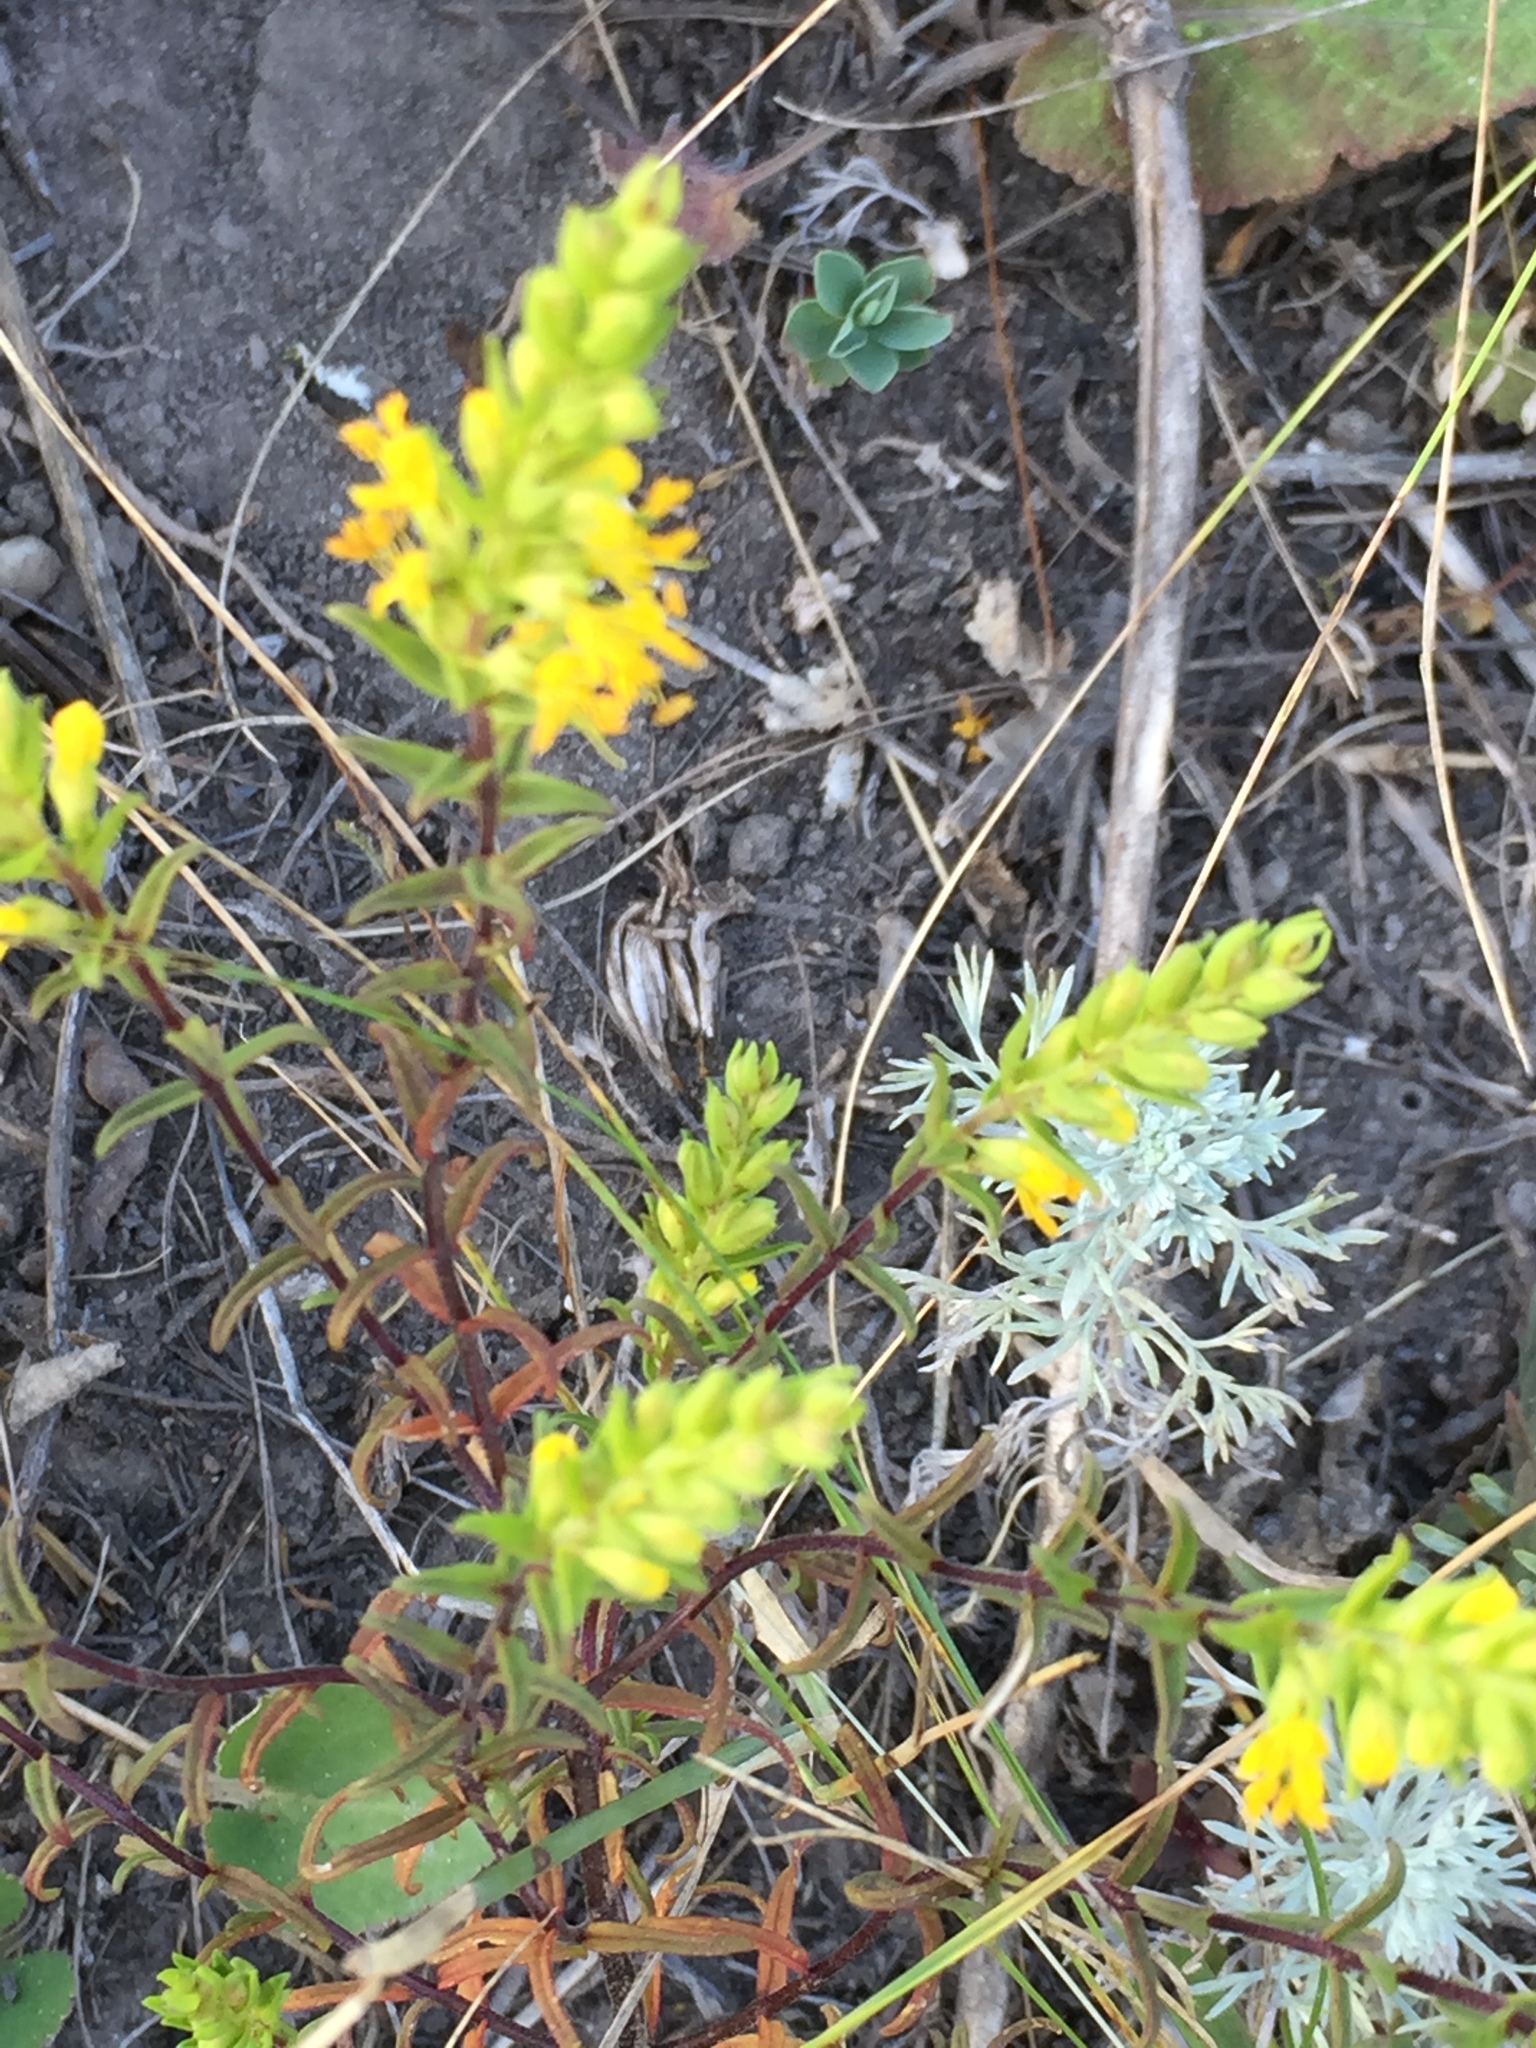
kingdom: Plantae
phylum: Tracheophyta
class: Magnoliopsida
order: Lamiales
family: Orobanchaceae
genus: Odontites
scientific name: Odontites luteus
